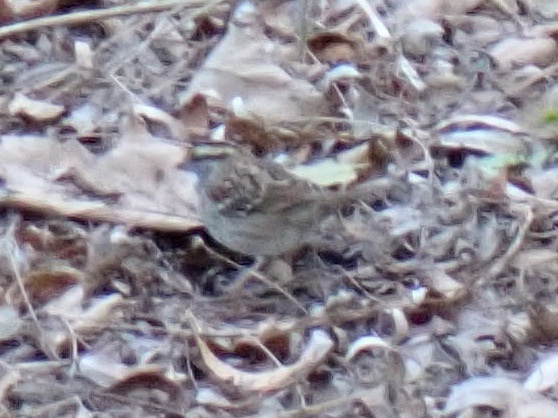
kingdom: Animalia
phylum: Chordata
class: Aves
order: Passeriformes
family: Passerellidae
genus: Zonotrichia
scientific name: Zonotrichia albicollis
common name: White-throated sparrow
